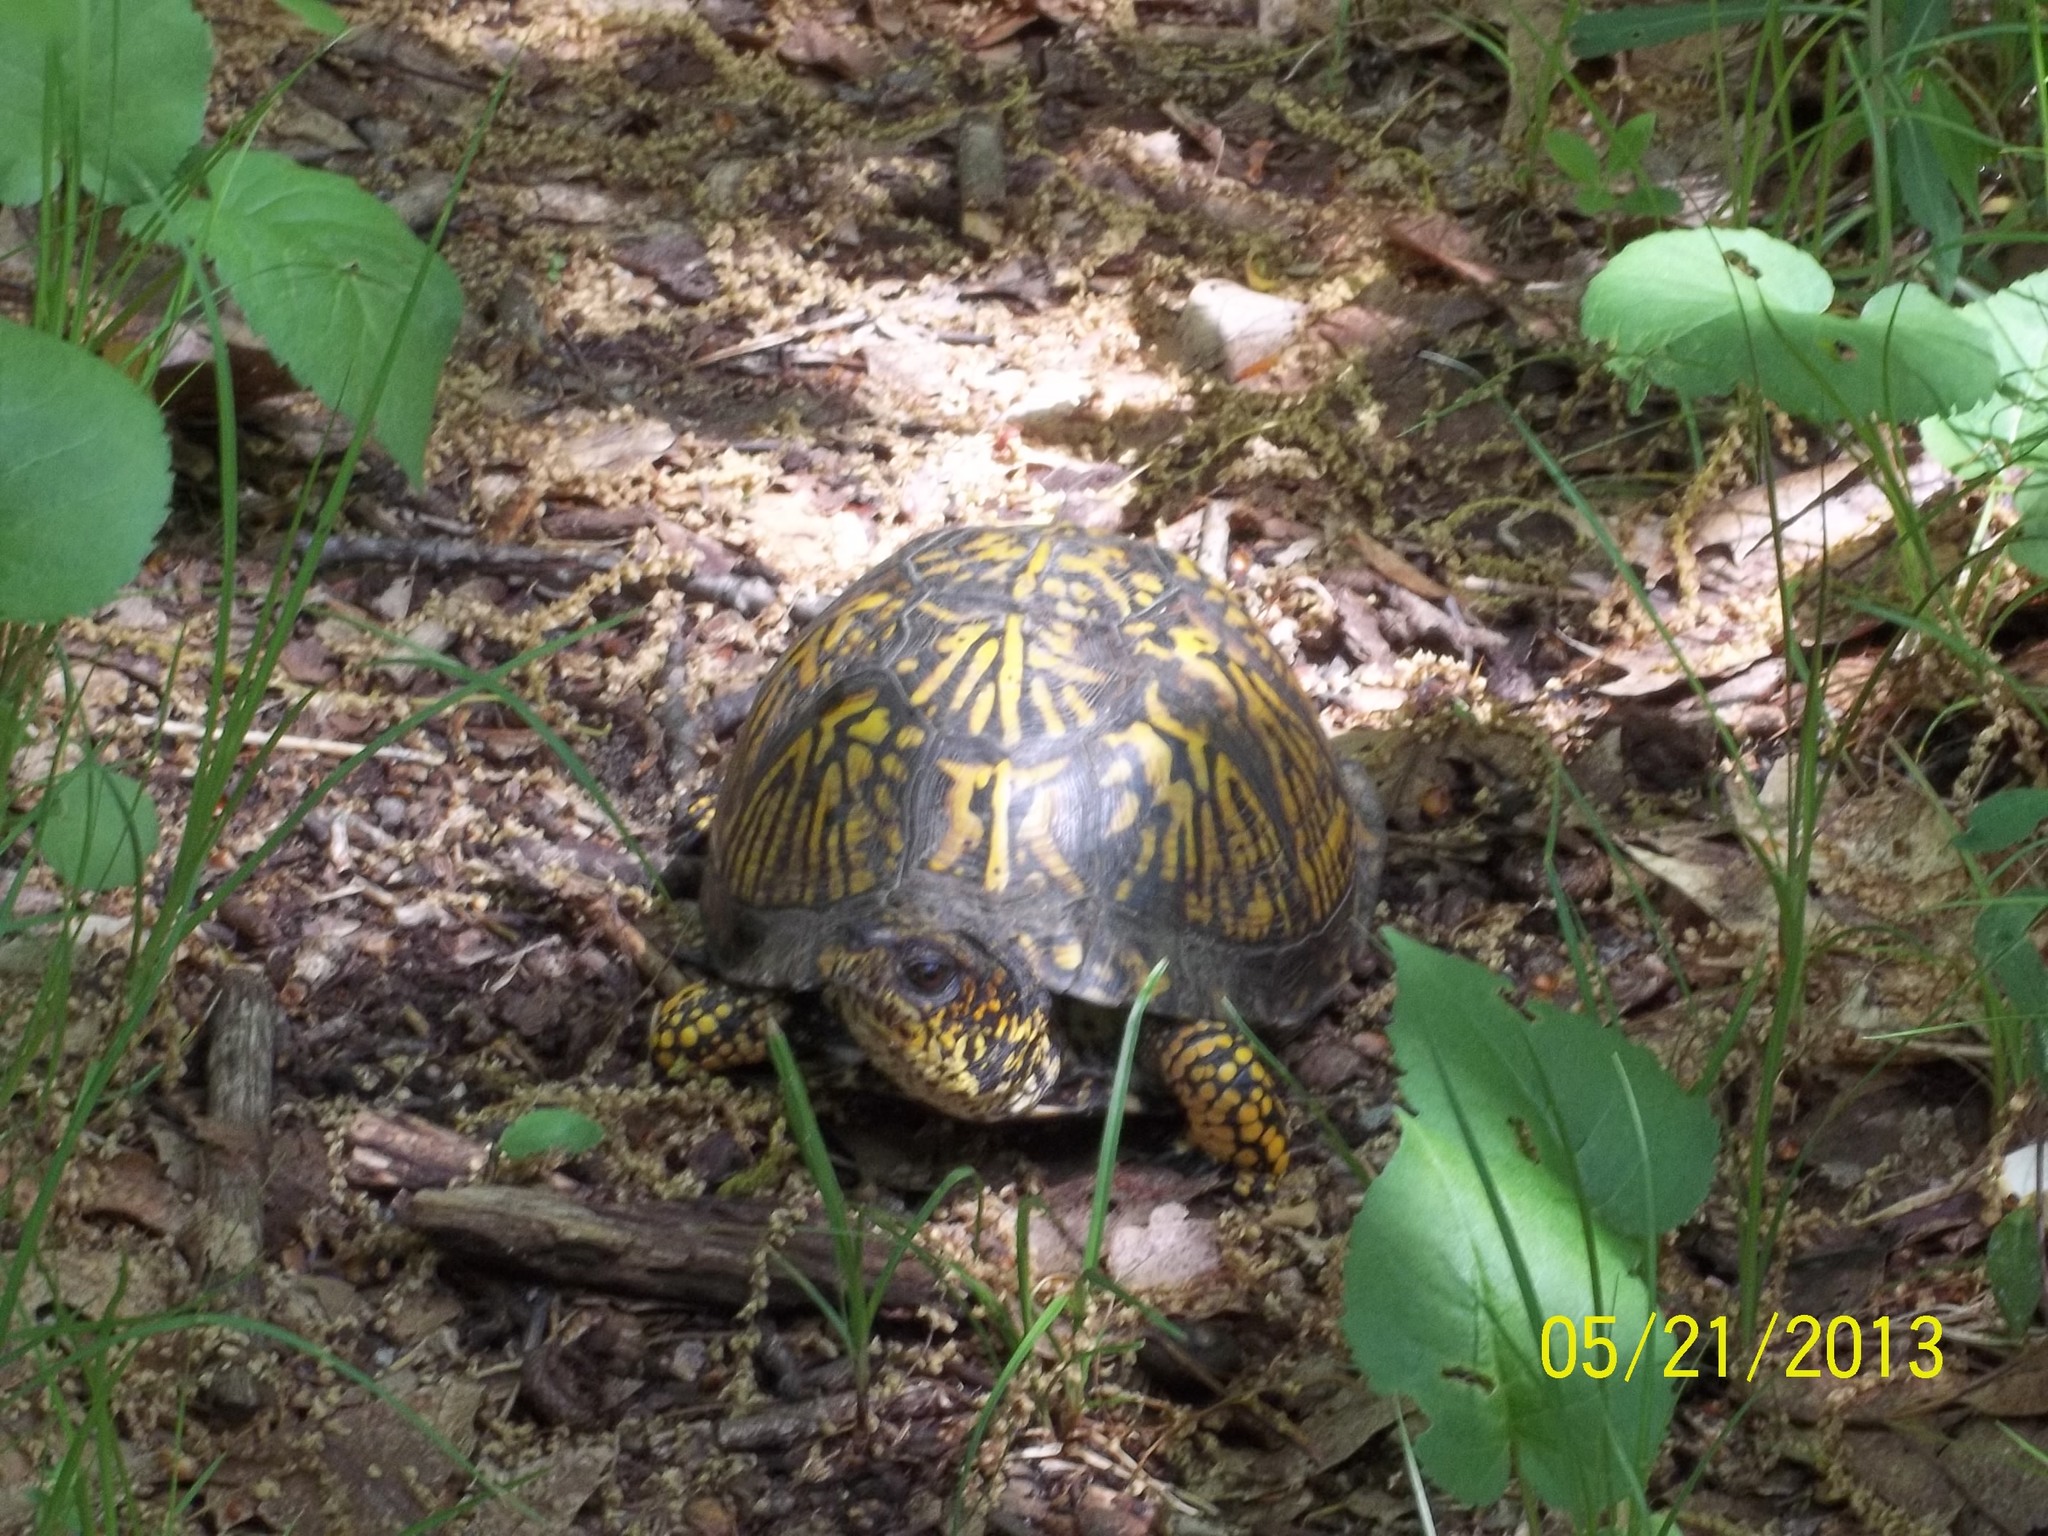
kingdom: Animalia
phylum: Chordata
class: Testudines
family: Emydidae
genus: Terrapene
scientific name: Terrapene carolina
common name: Common box turtle
